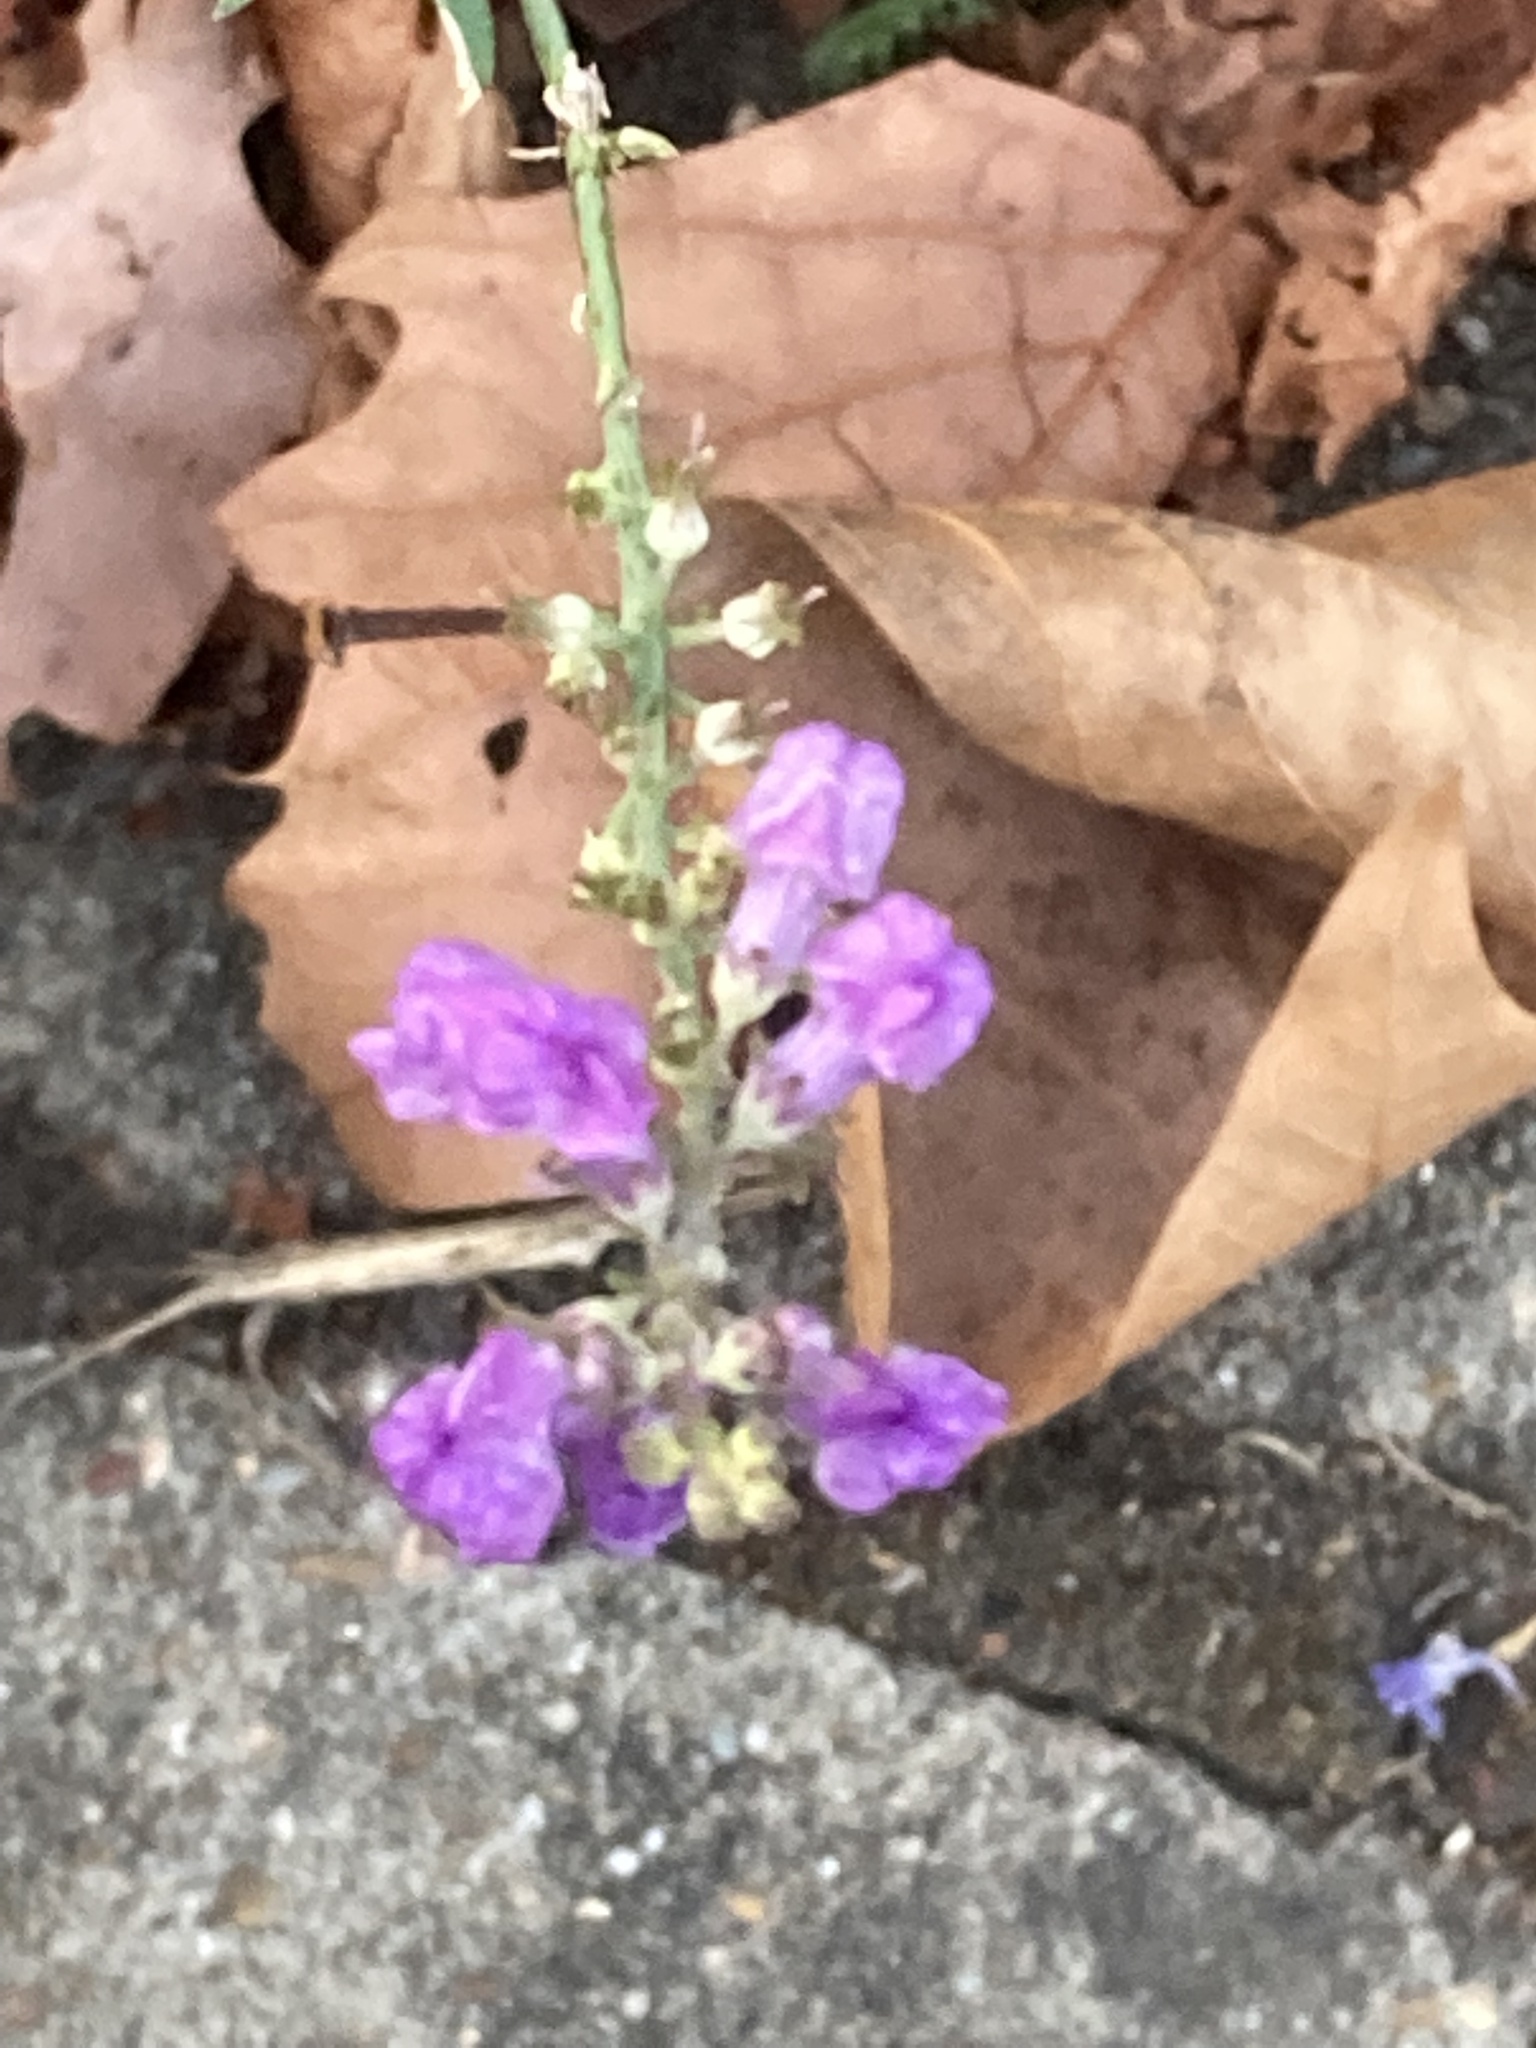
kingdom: Plantae
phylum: Tracheophyta
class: Magnoliopsida
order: Lamiales
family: Plantaginaceae
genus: Linaria
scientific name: Linaria purpurea
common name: Purple toadflax
